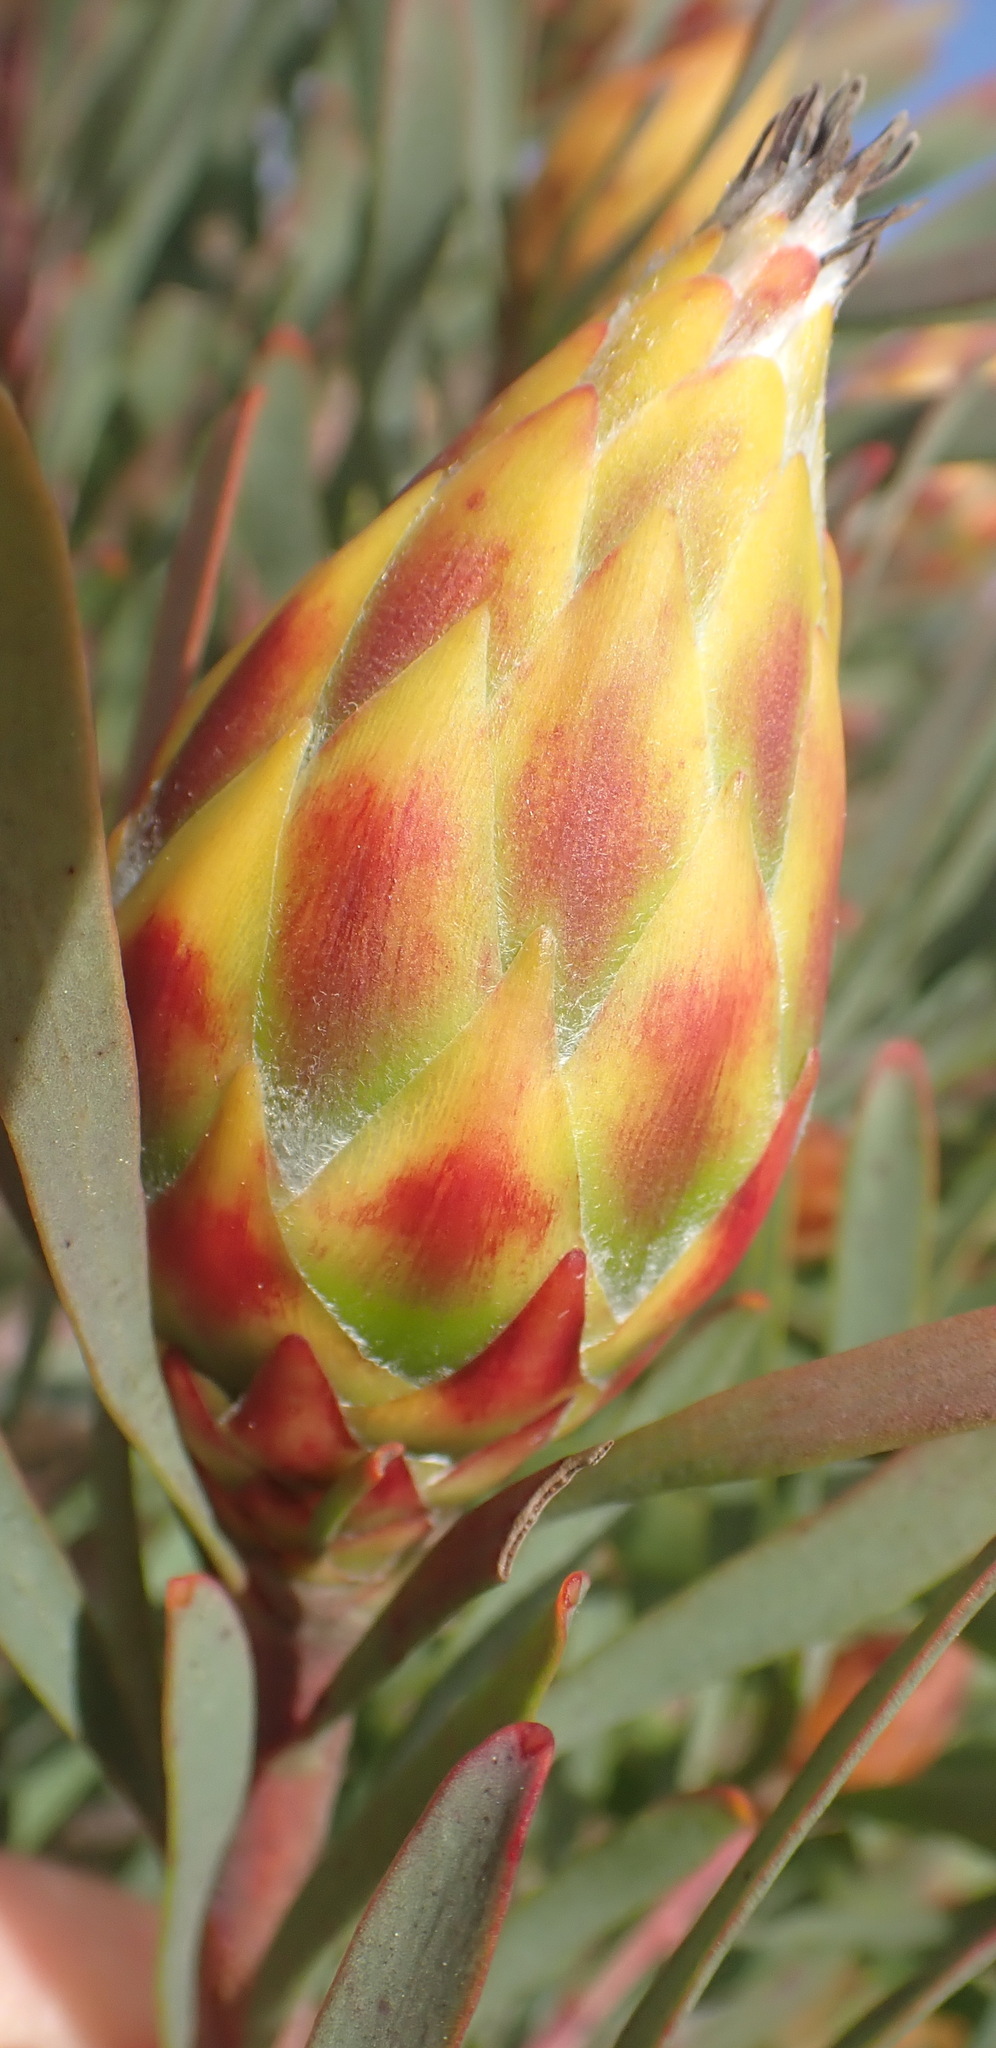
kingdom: Plantae
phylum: Tracheophyta
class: Magnoliopsida
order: Proteales
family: Proteaceae
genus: Leucadendron
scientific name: Leucadendron rubrum
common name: Spinning top
